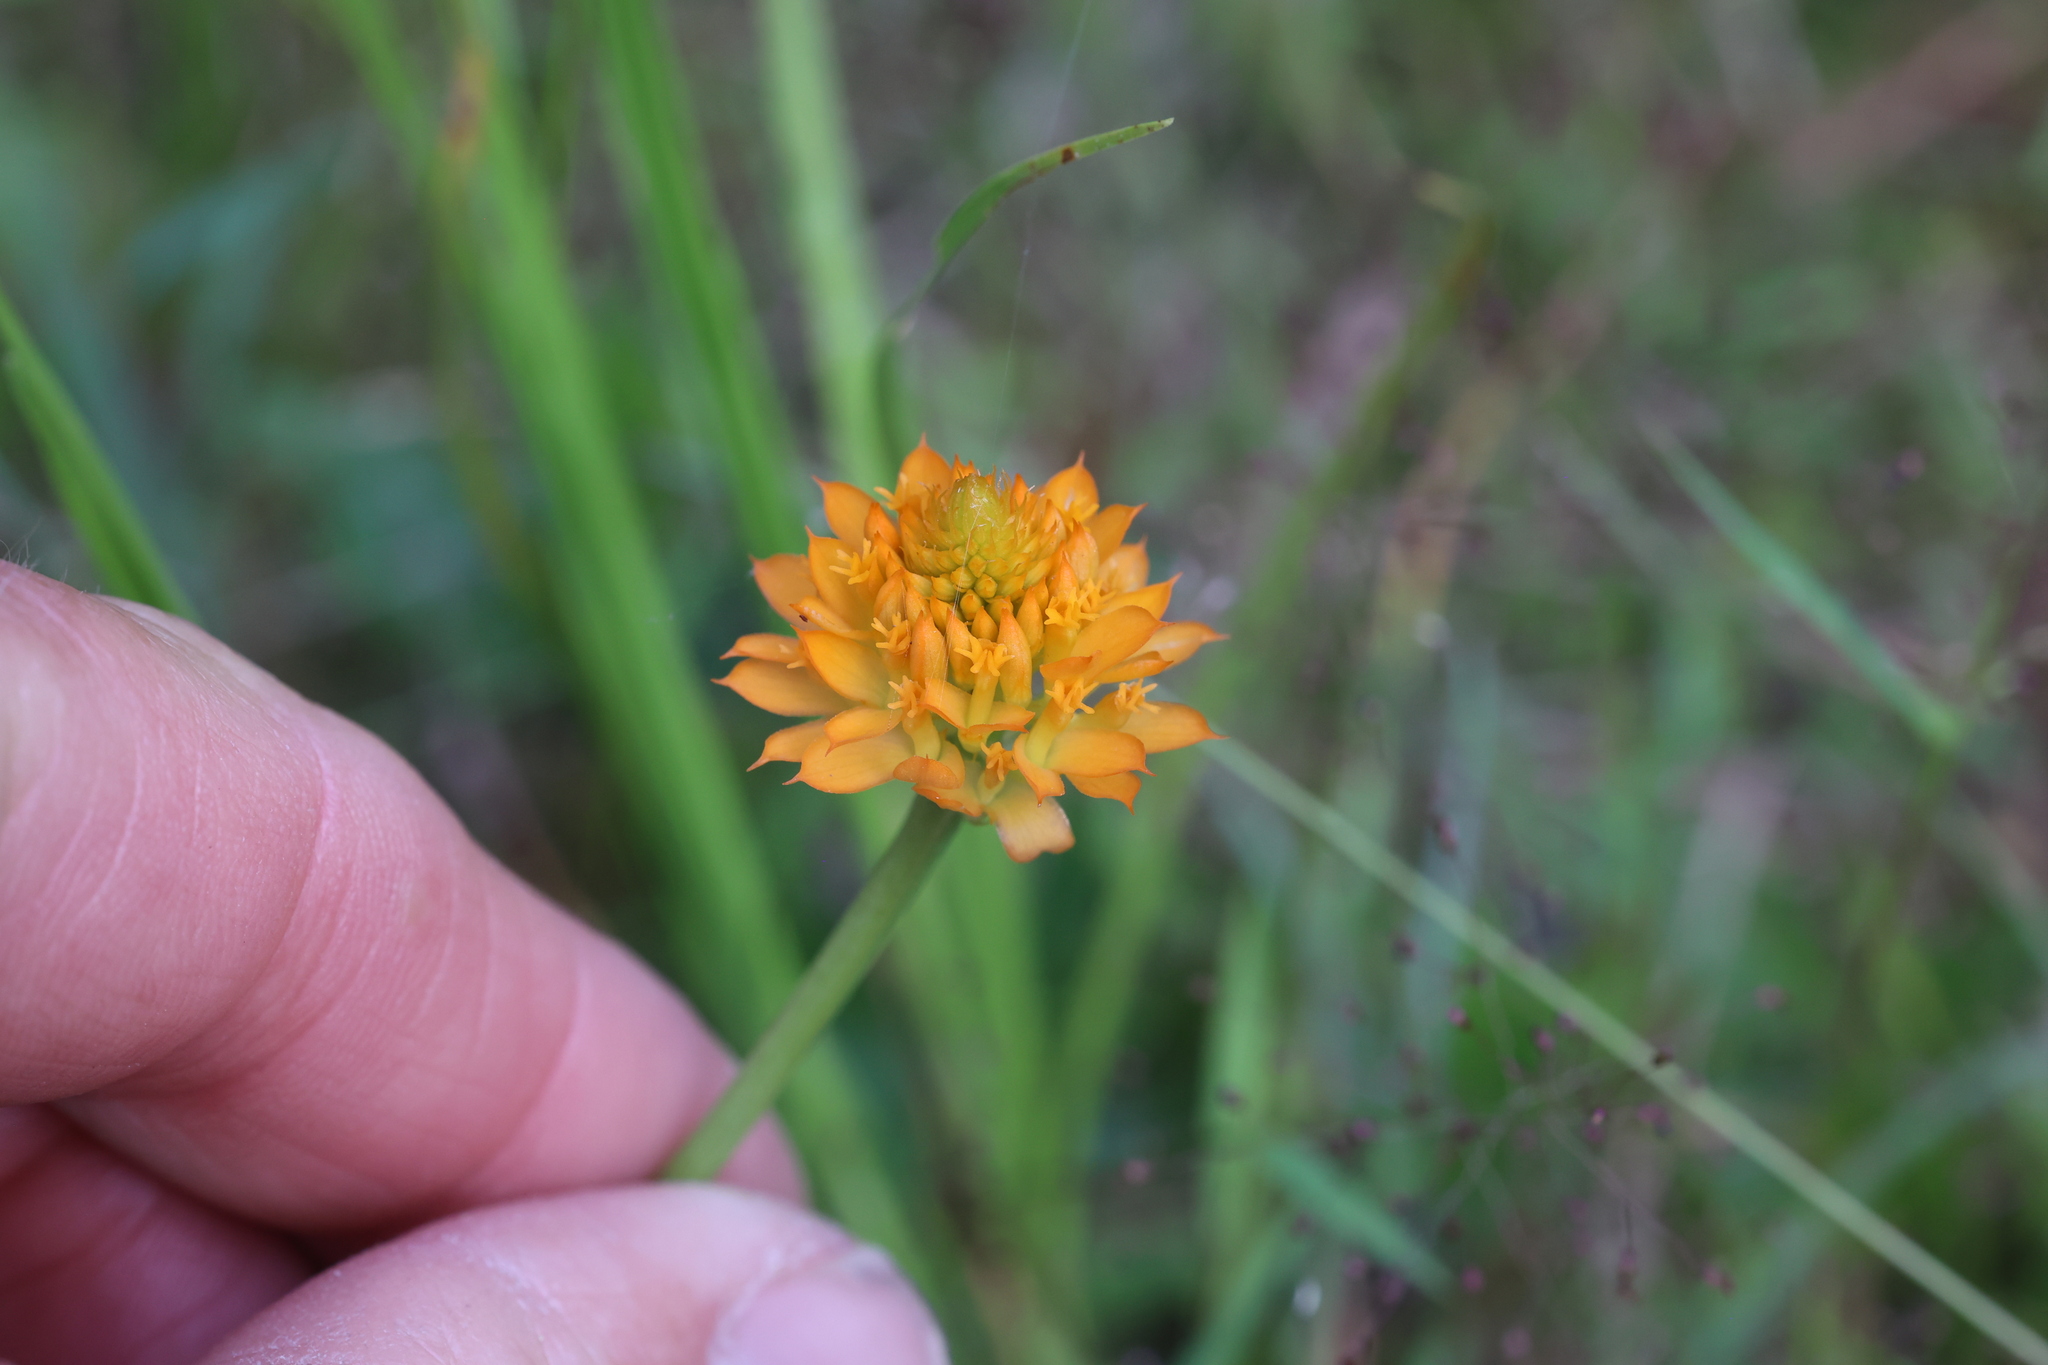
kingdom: Plantae
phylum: Tracheophyta
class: Magnoliopsida
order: Fabales
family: Polygalaceae
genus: Polygala
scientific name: Polygala lutea
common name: Orange milkwort
